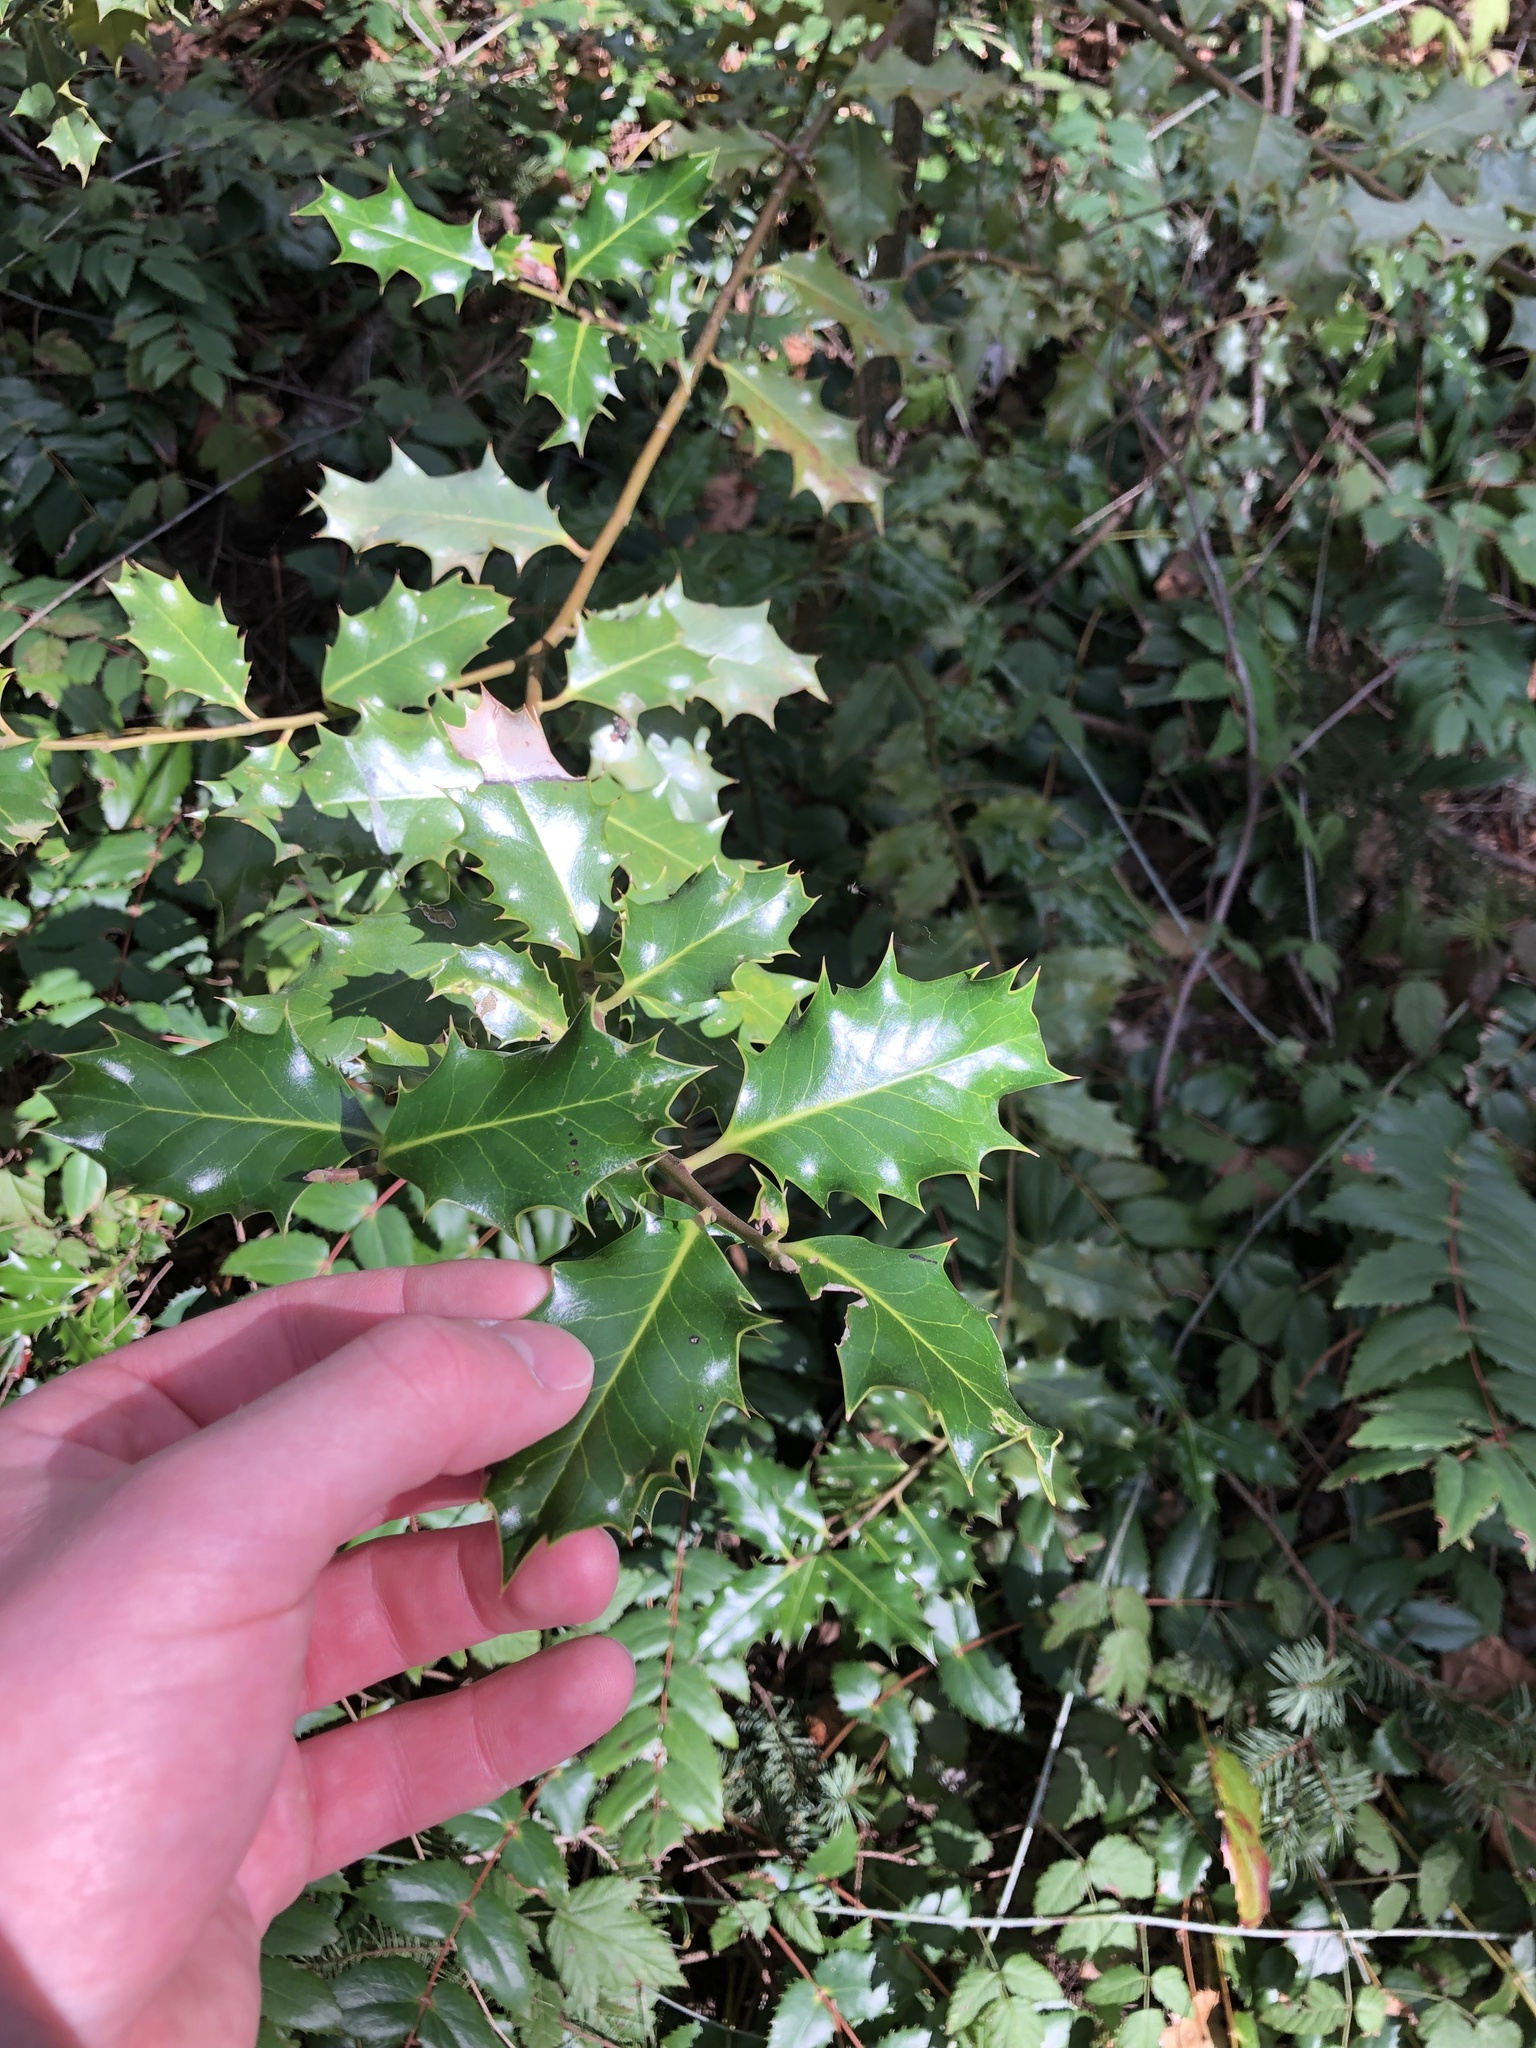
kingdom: Plantae
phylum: Tracheophyta
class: Magnoliopsida
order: Aquifoliales
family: Aquifoliaceae
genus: Ilex
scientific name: Ilex aquifolium
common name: English holly
